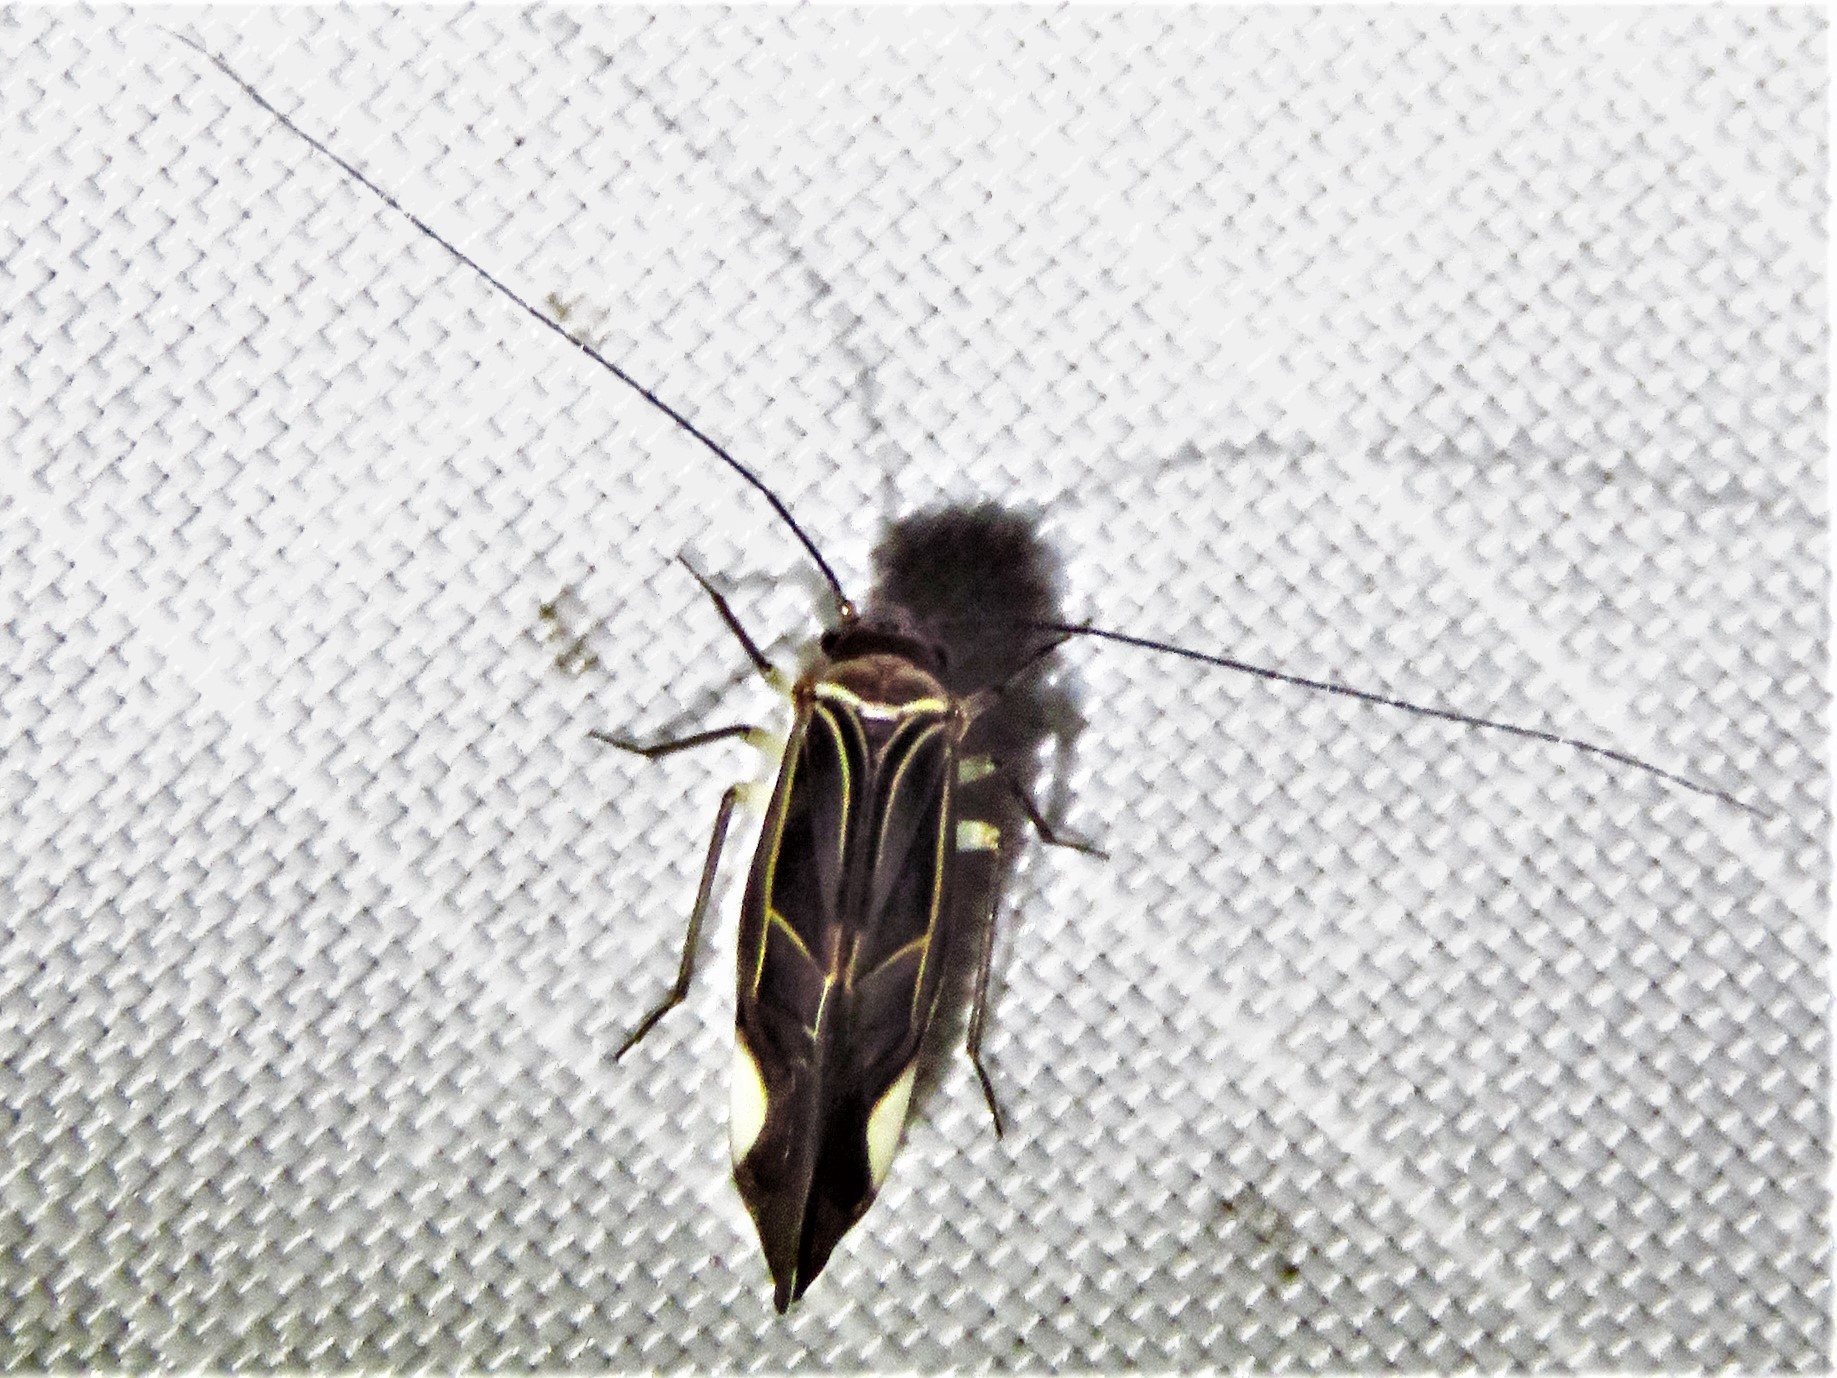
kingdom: Animalia
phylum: Arthropoda
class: Insecta
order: Psocodea
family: Psocidae
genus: Cerastipsocus
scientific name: Cerastipsocus venosus
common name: Tree cattle
